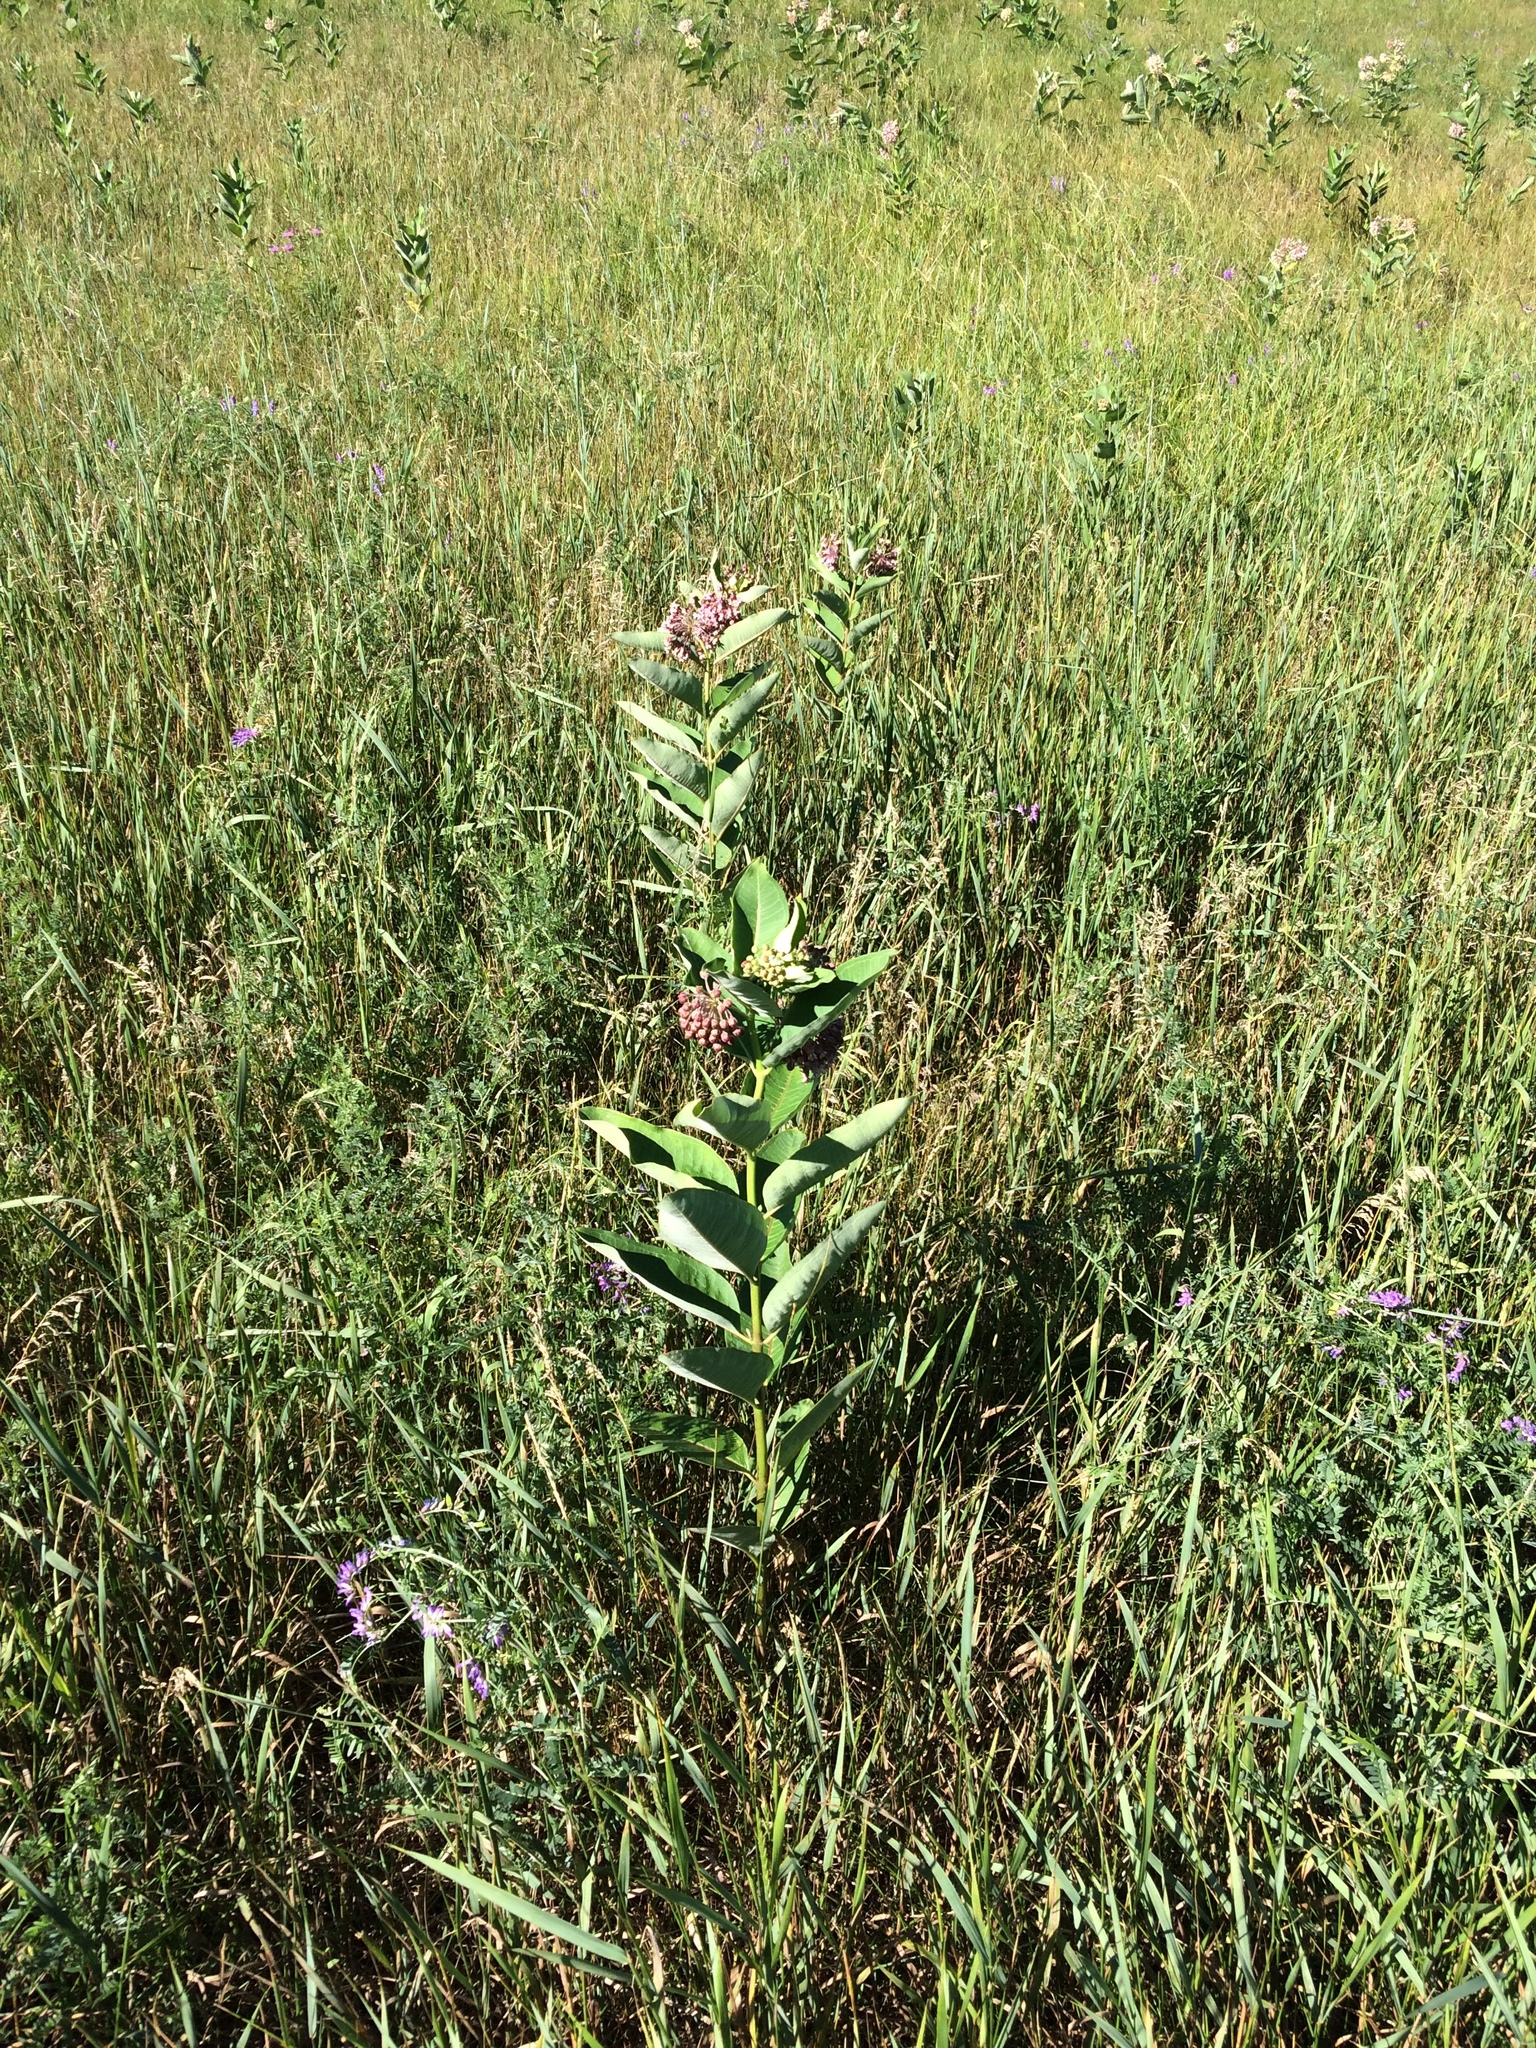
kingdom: Plantae
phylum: Tracheophyta
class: Magnoliopsida
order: Gentianales
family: Apocynaceae
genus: Asclepias
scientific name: Asclepias syriaca
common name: Common milkweed
